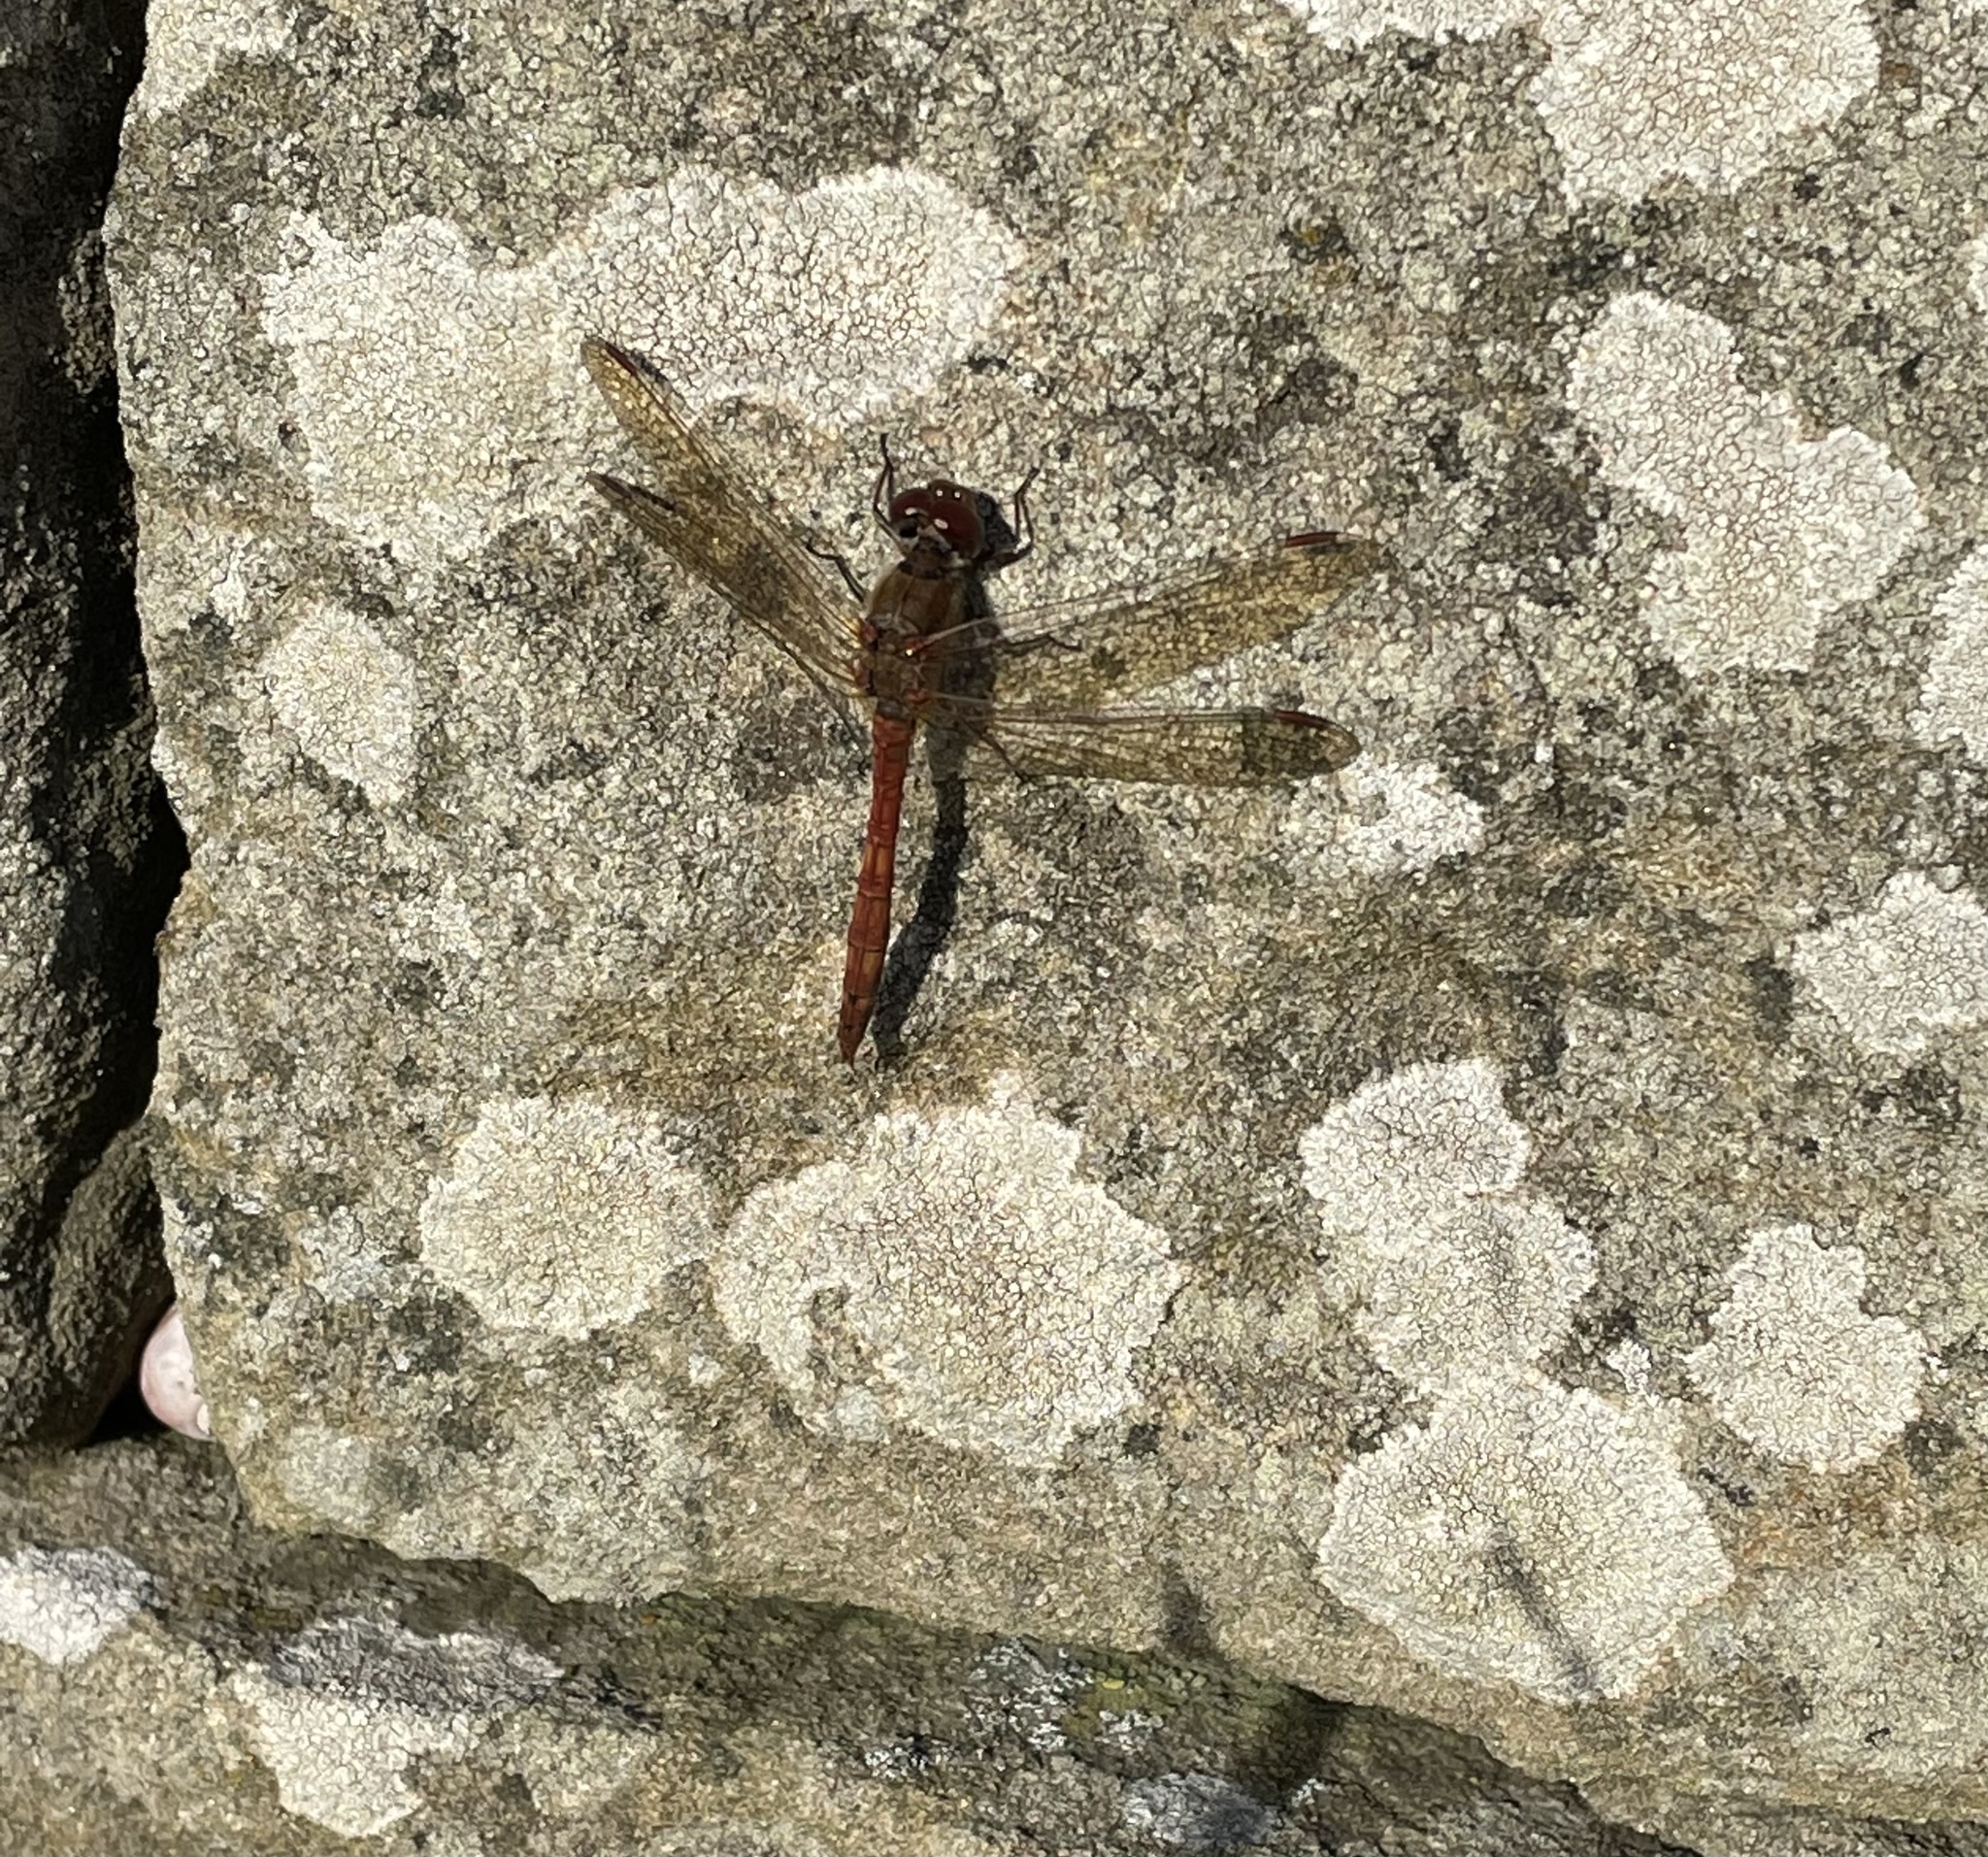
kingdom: Animalia
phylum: Arthropoda
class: Insecta
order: Odonata
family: Libellulidae
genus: Sympetrum
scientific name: Sympetrum striolatum
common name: Common darter
